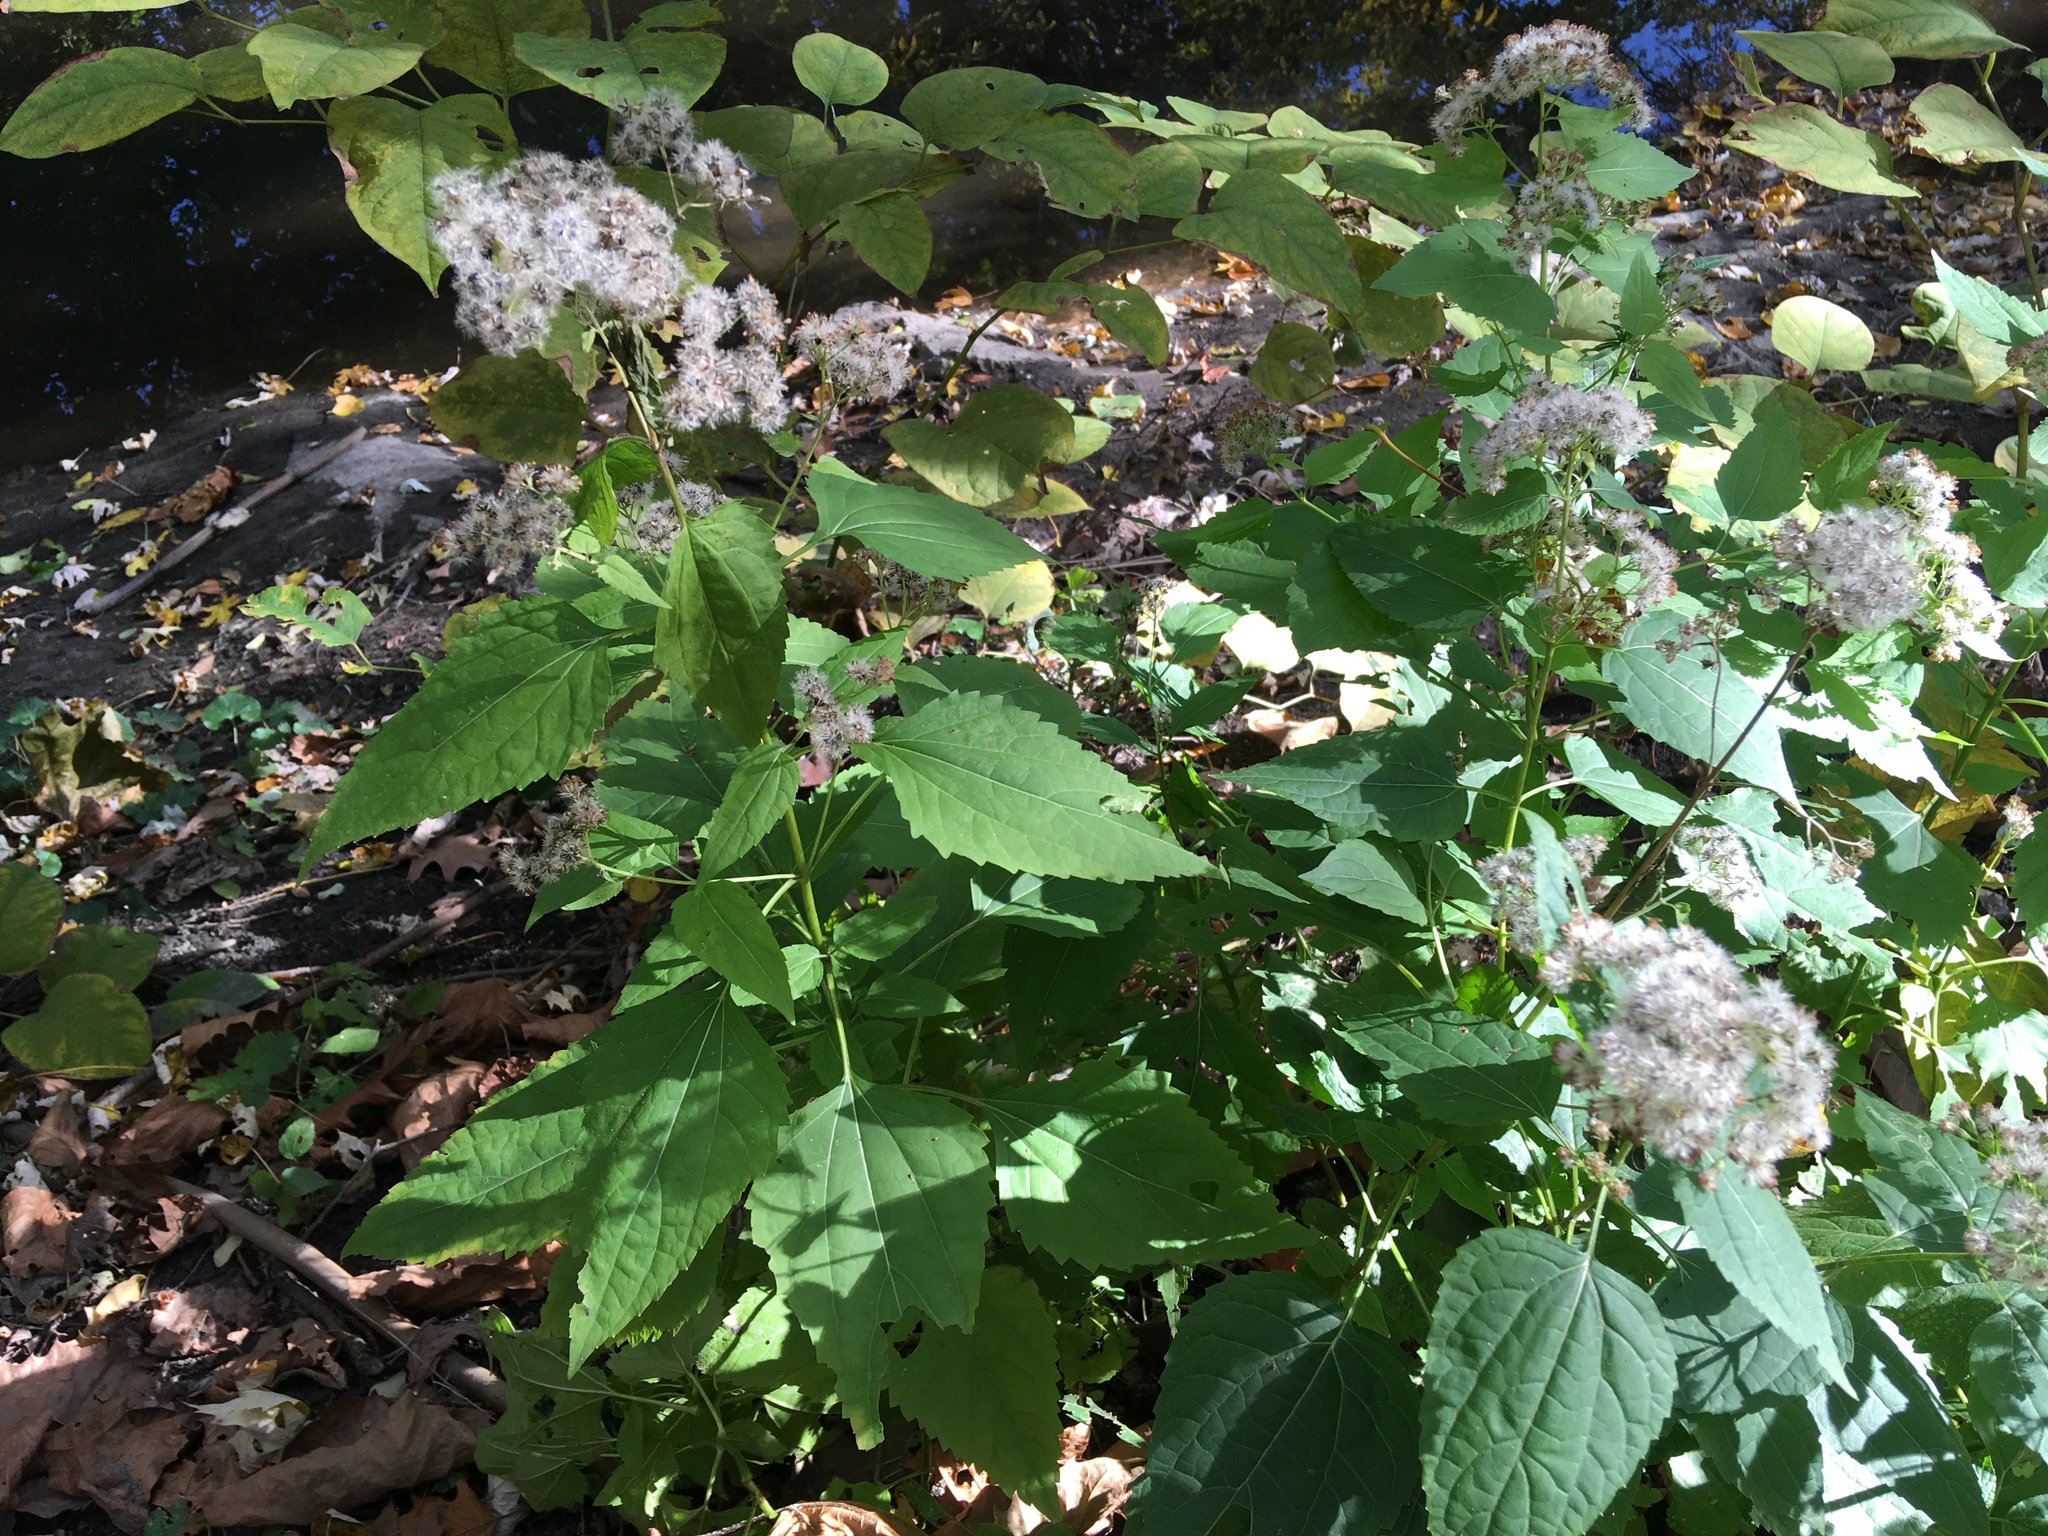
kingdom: Plantae
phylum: Tracheophyta
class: Magnoliopsida
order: Asterales
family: Asteraceae
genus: Ageratina
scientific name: Ageratina altissima
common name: White snakeroot
